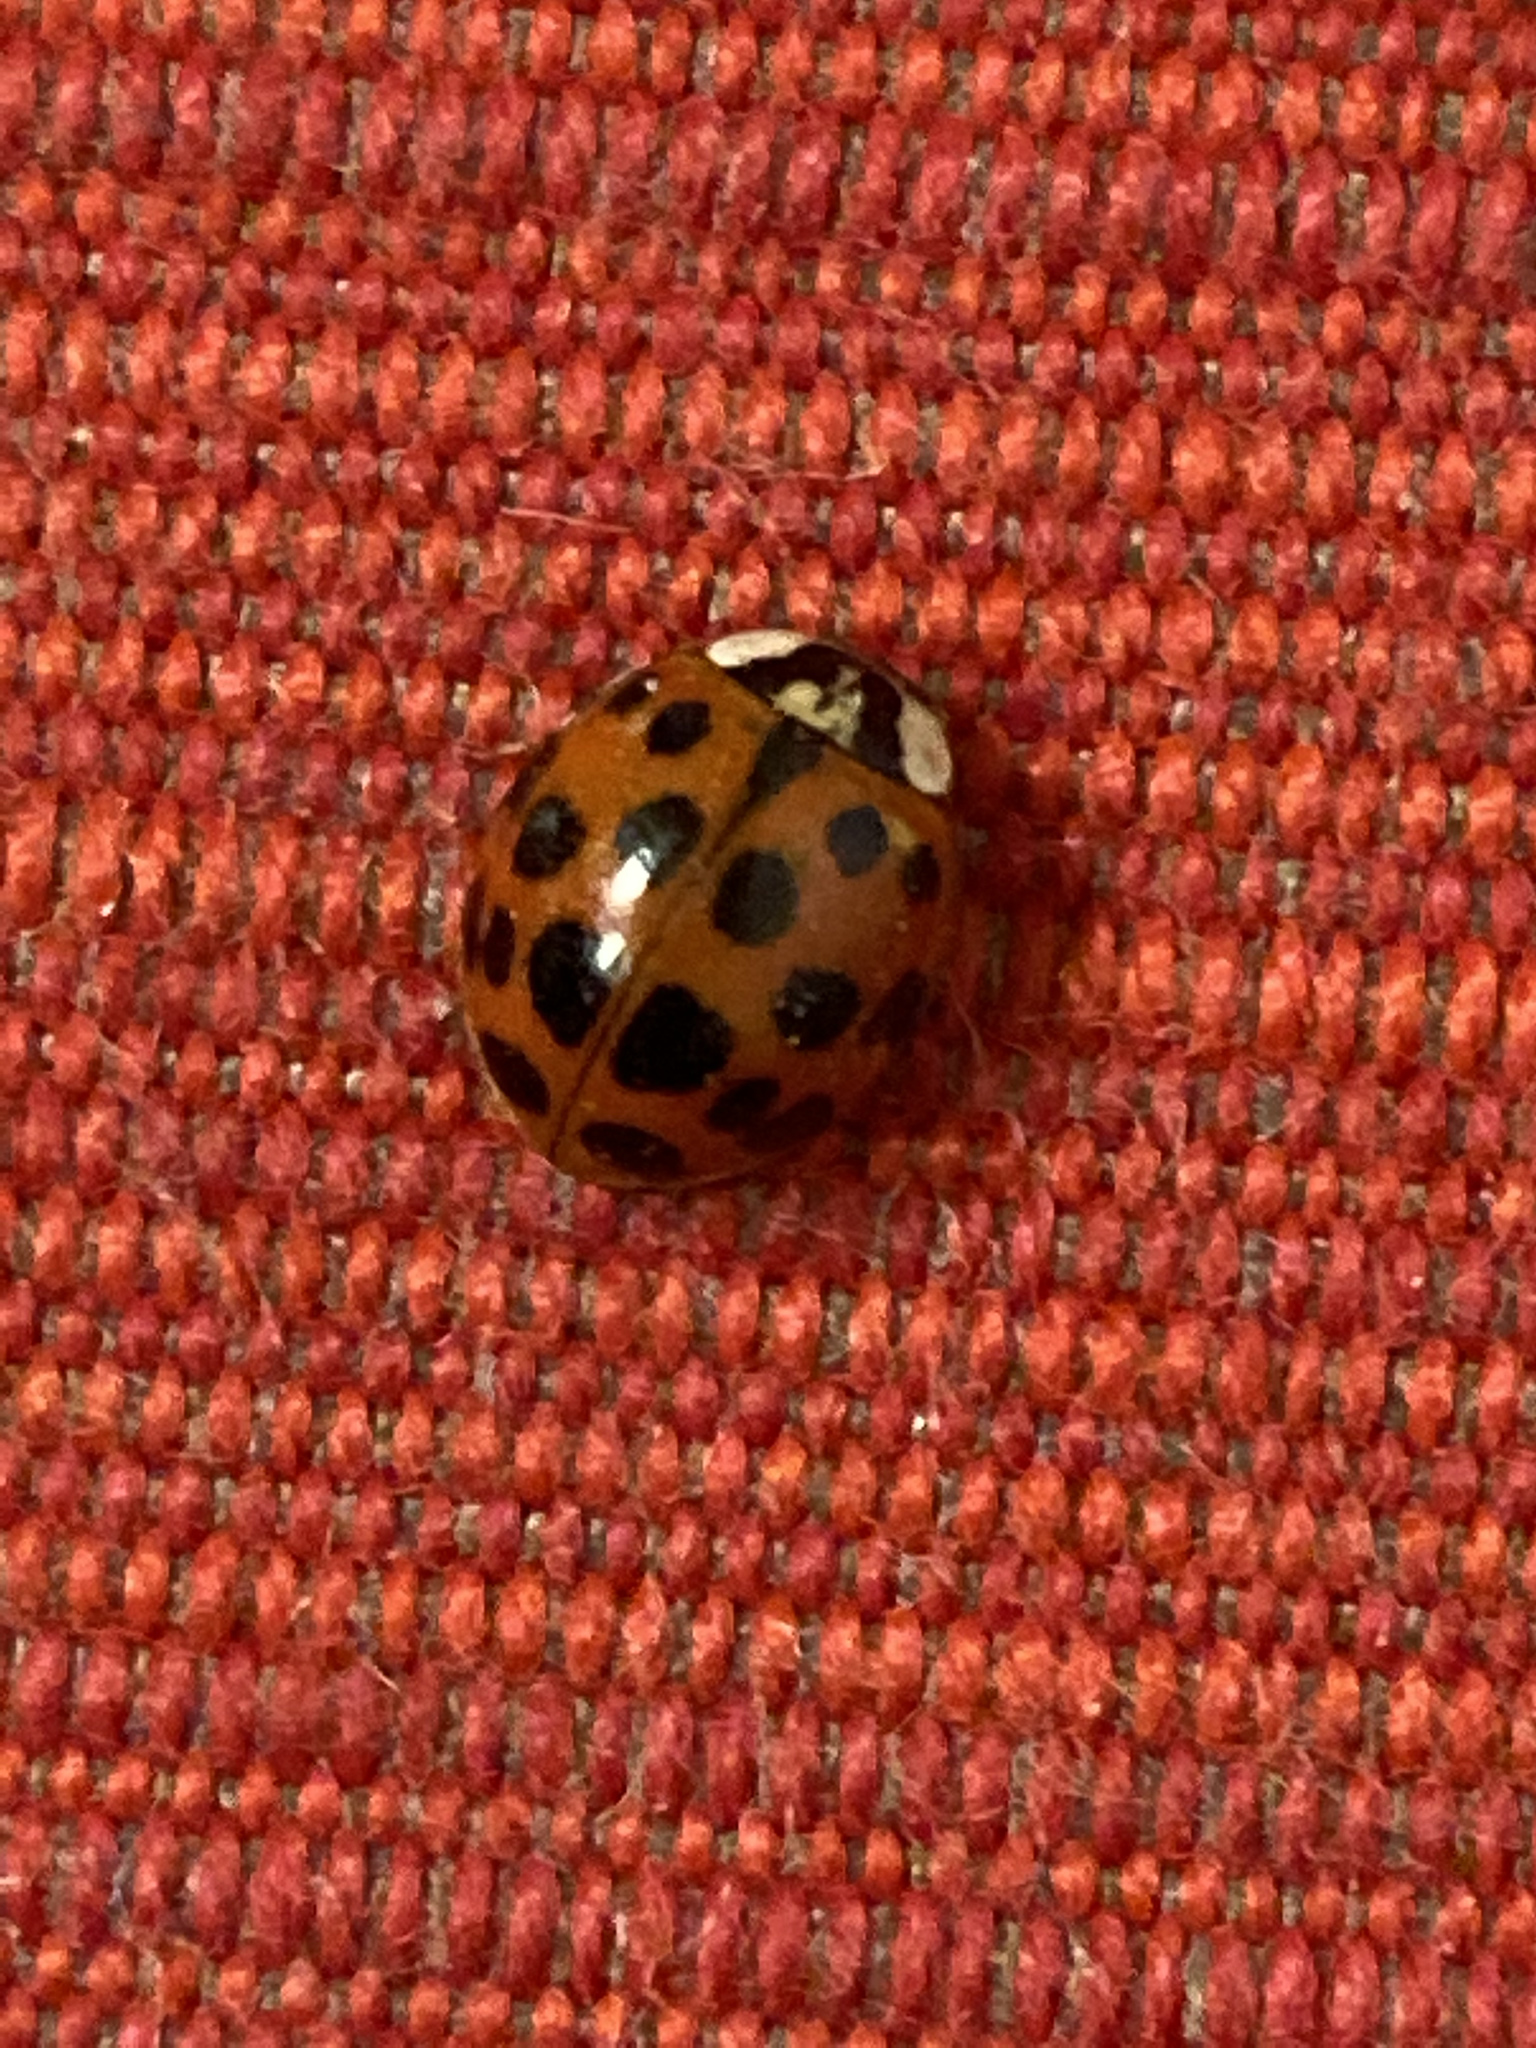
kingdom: Animalia
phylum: Arthropoda
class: Insecta
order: Coleoptera
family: Coccinellidae
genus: Harmonia
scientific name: Harmonia axyridis
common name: Harlequin ladybird
